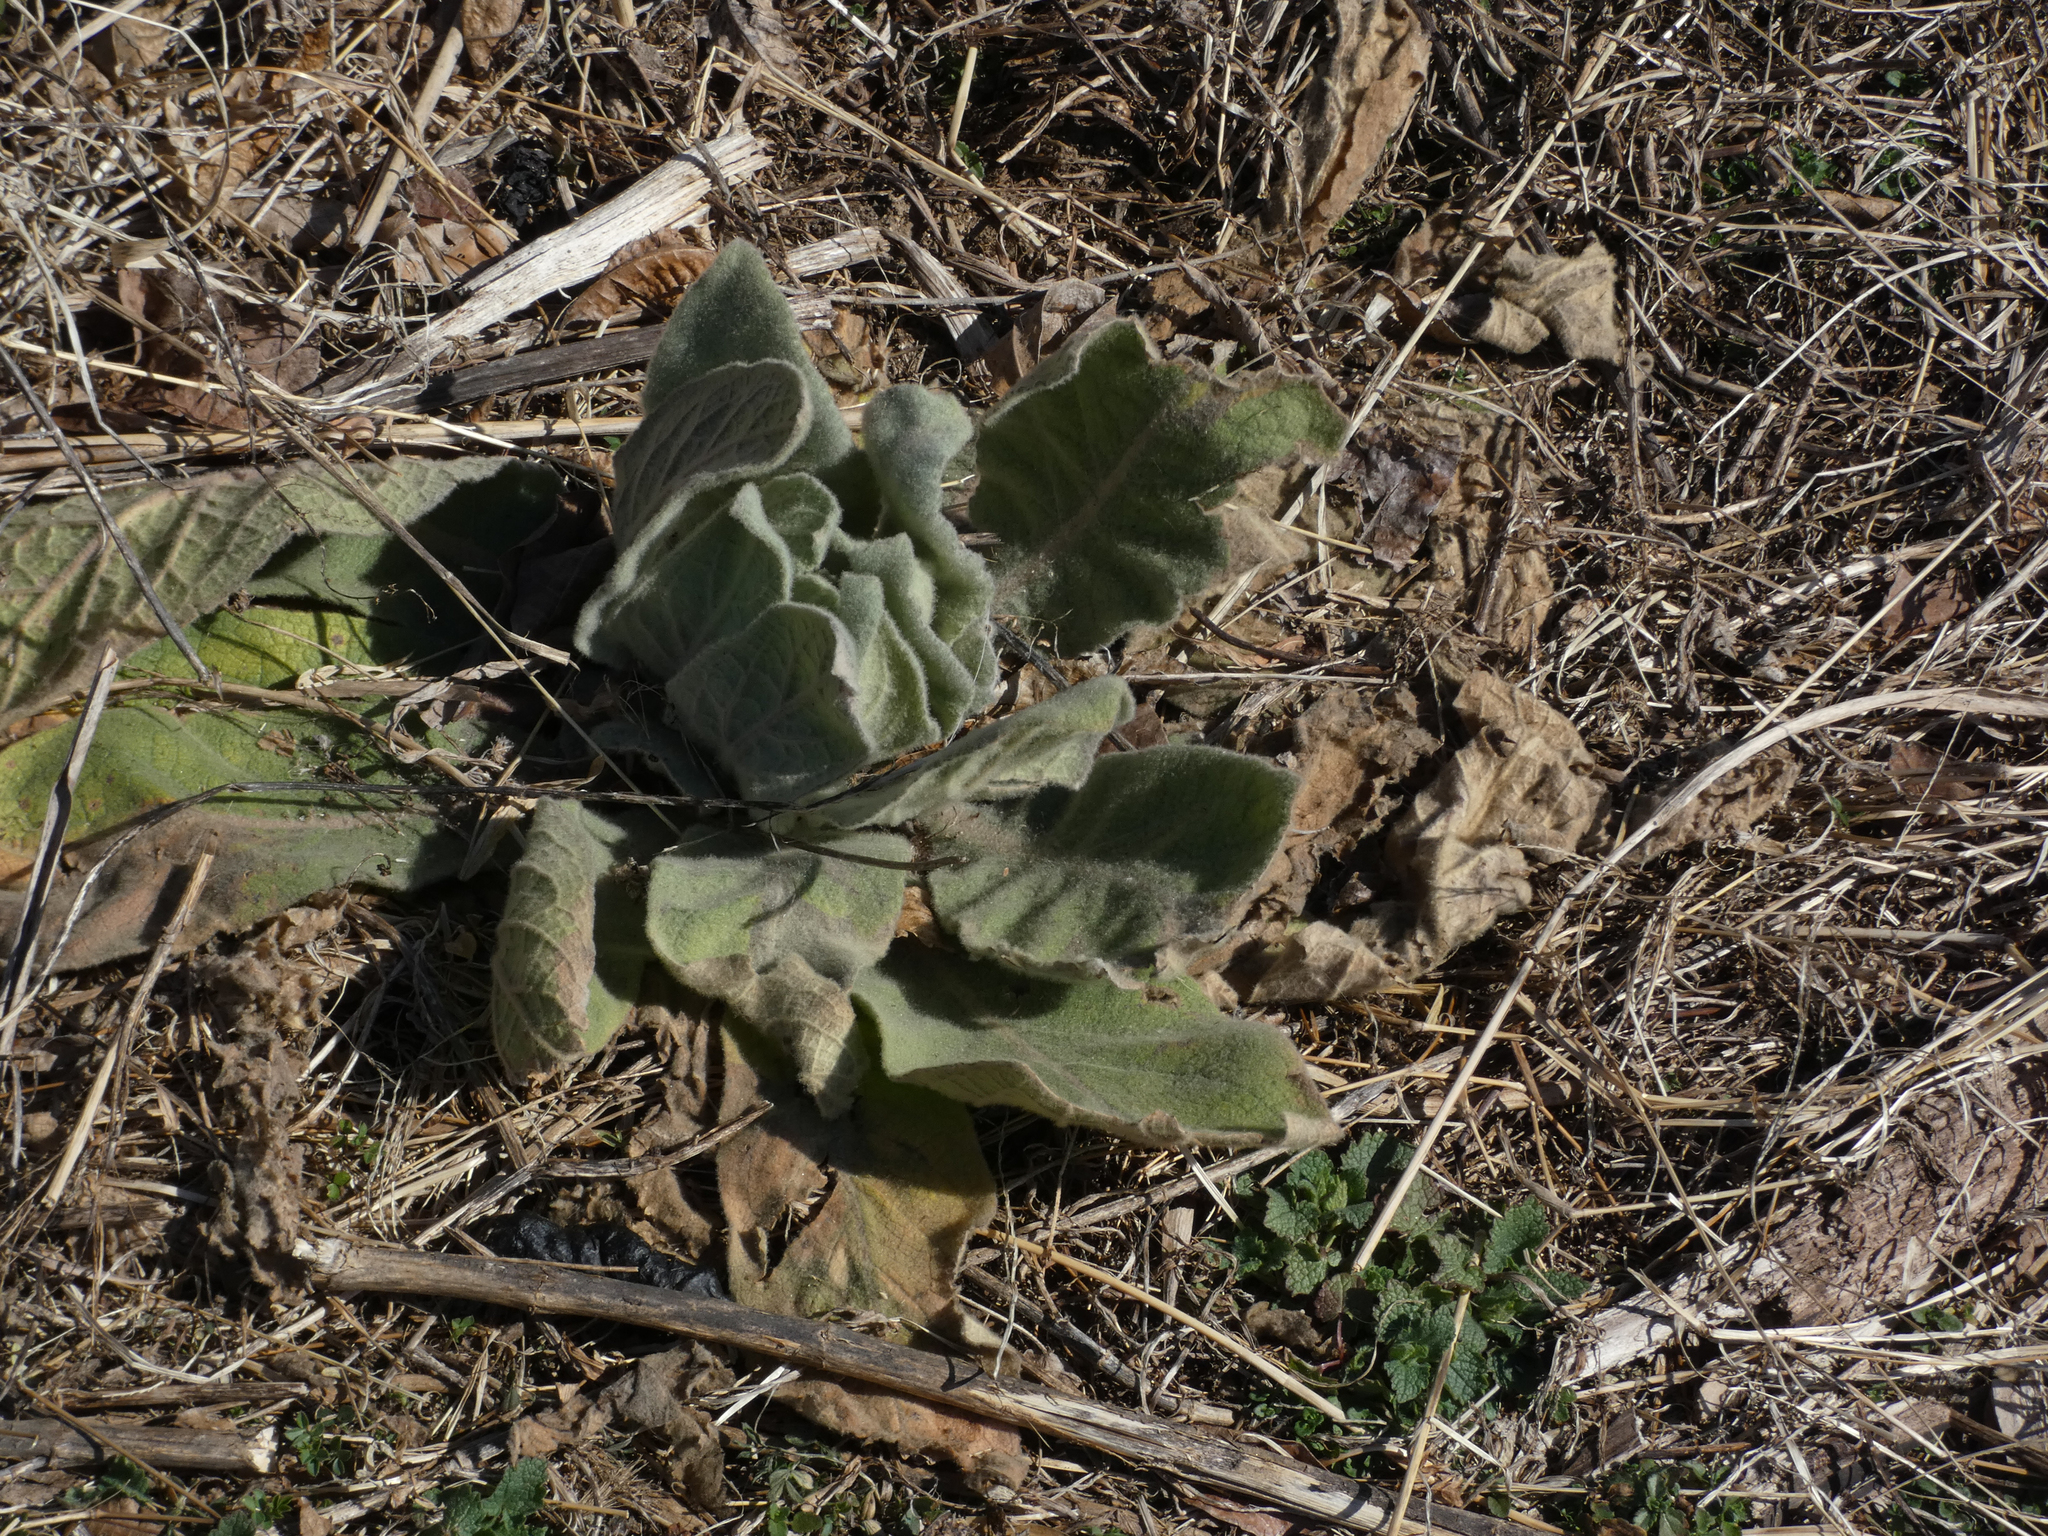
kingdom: Plantae
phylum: Tracheophyta
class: Magnoliopsida
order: Lamiales
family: Scrophulariaceae
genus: Verbascum
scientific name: Verbascum thapsus
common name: Common mullein
